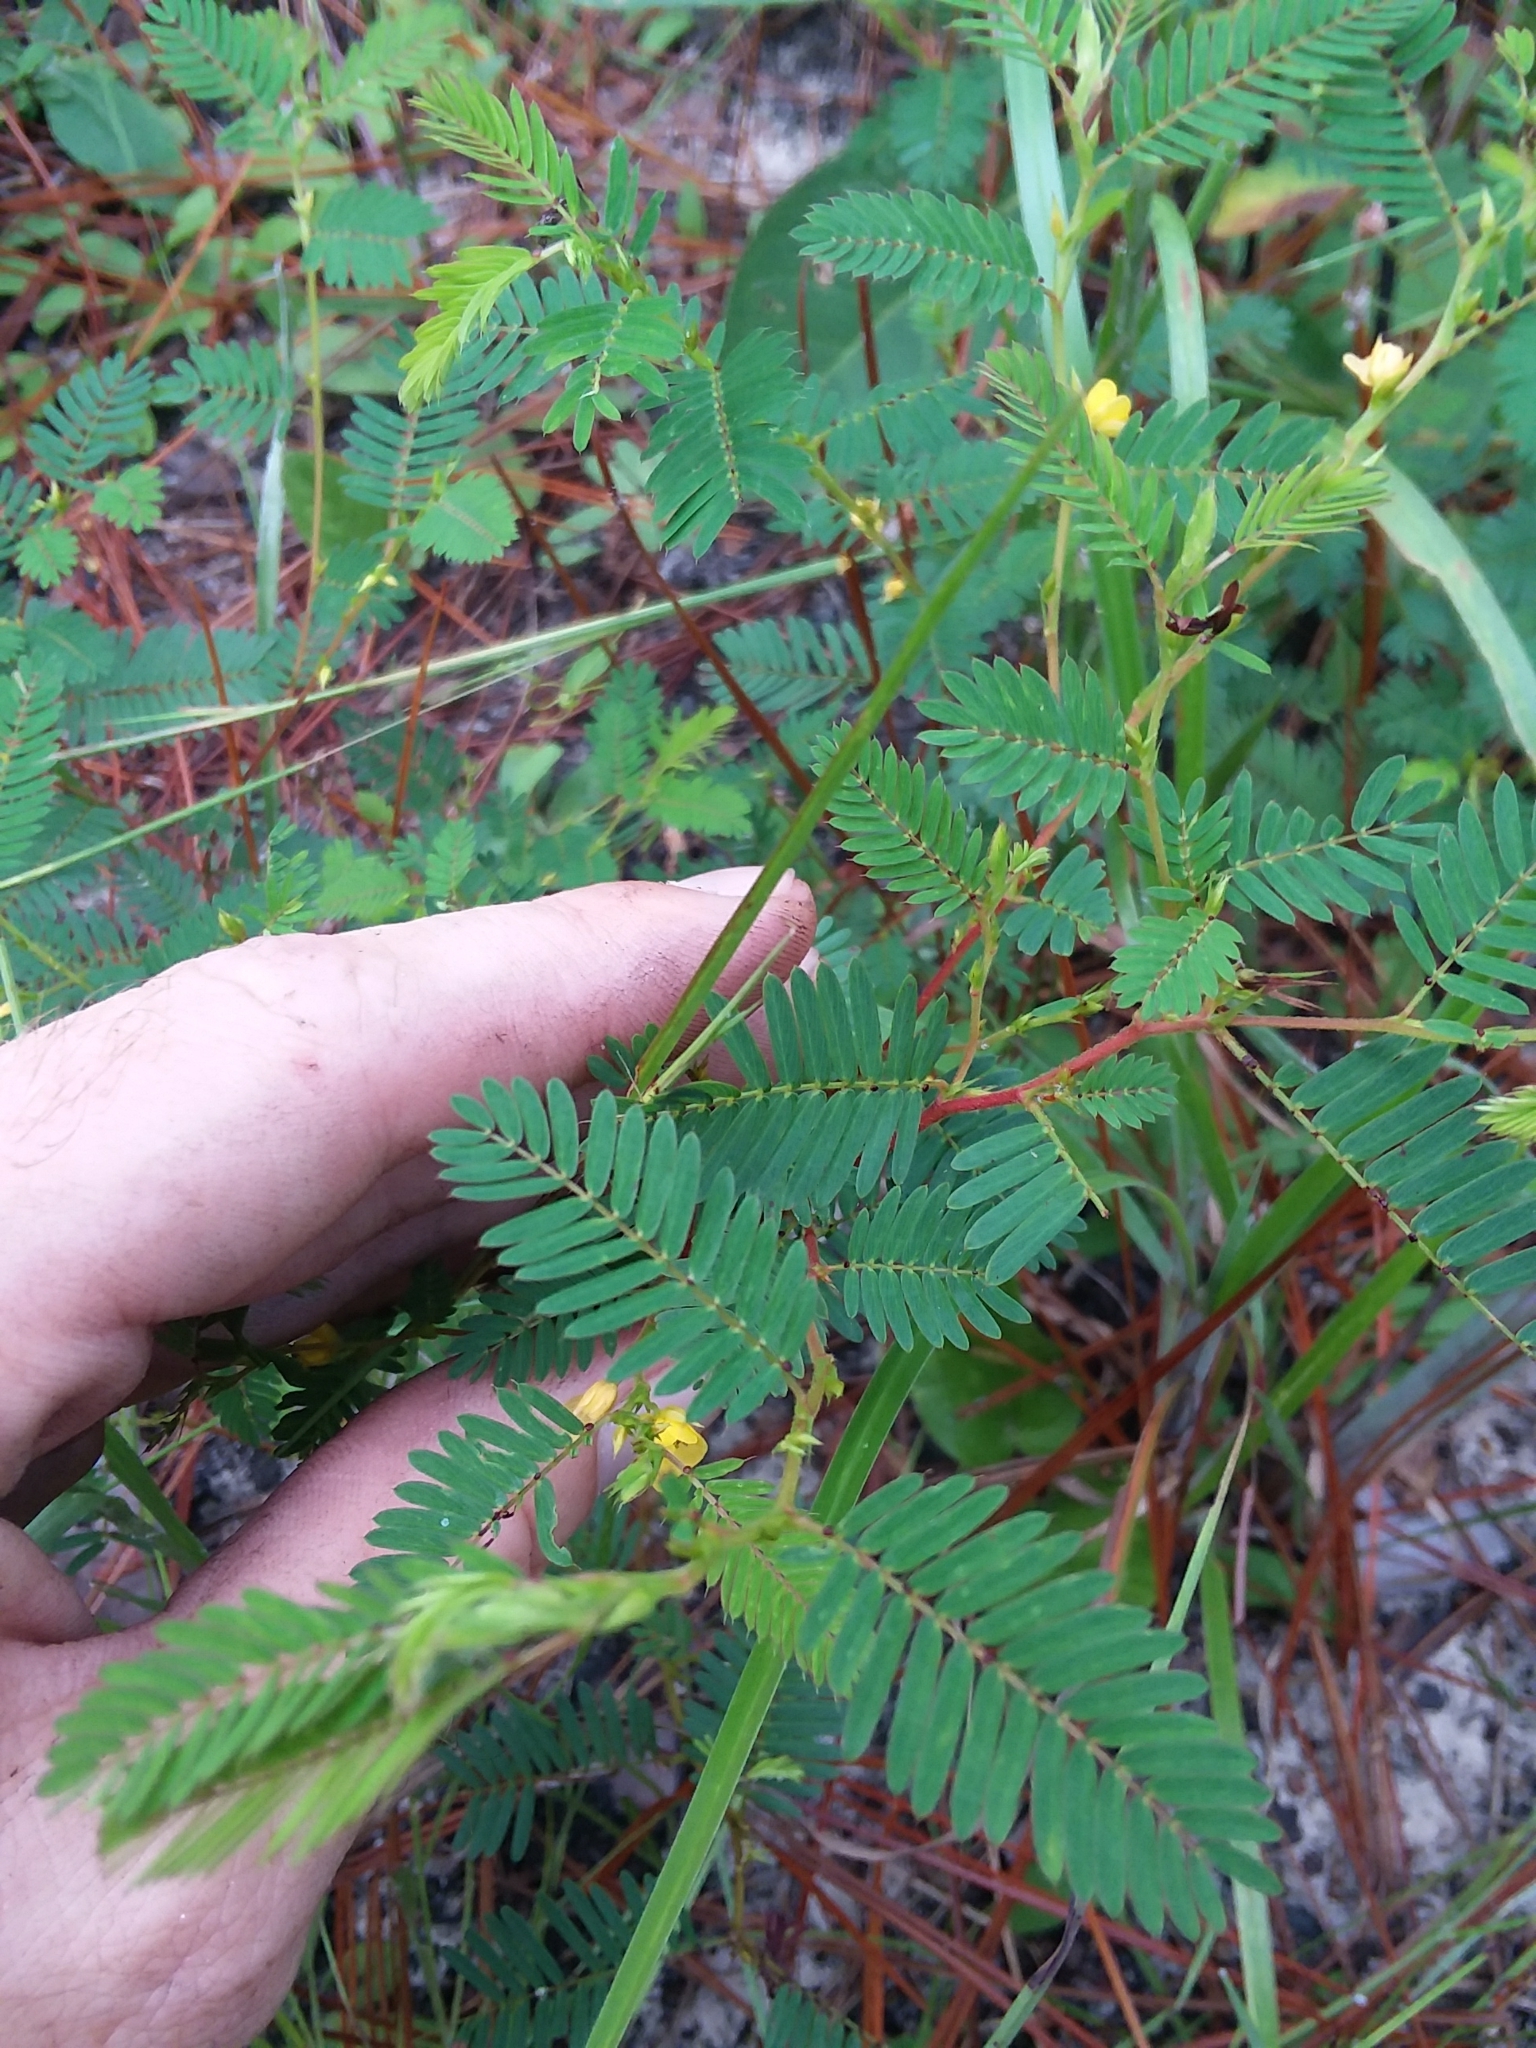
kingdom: Plantae
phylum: Tracheophyta
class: Magnoliopsida
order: Fabales
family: Fabaceae
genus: Chamaecrista
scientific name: Chamaecrista nictitans
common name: Sensitive cassia
